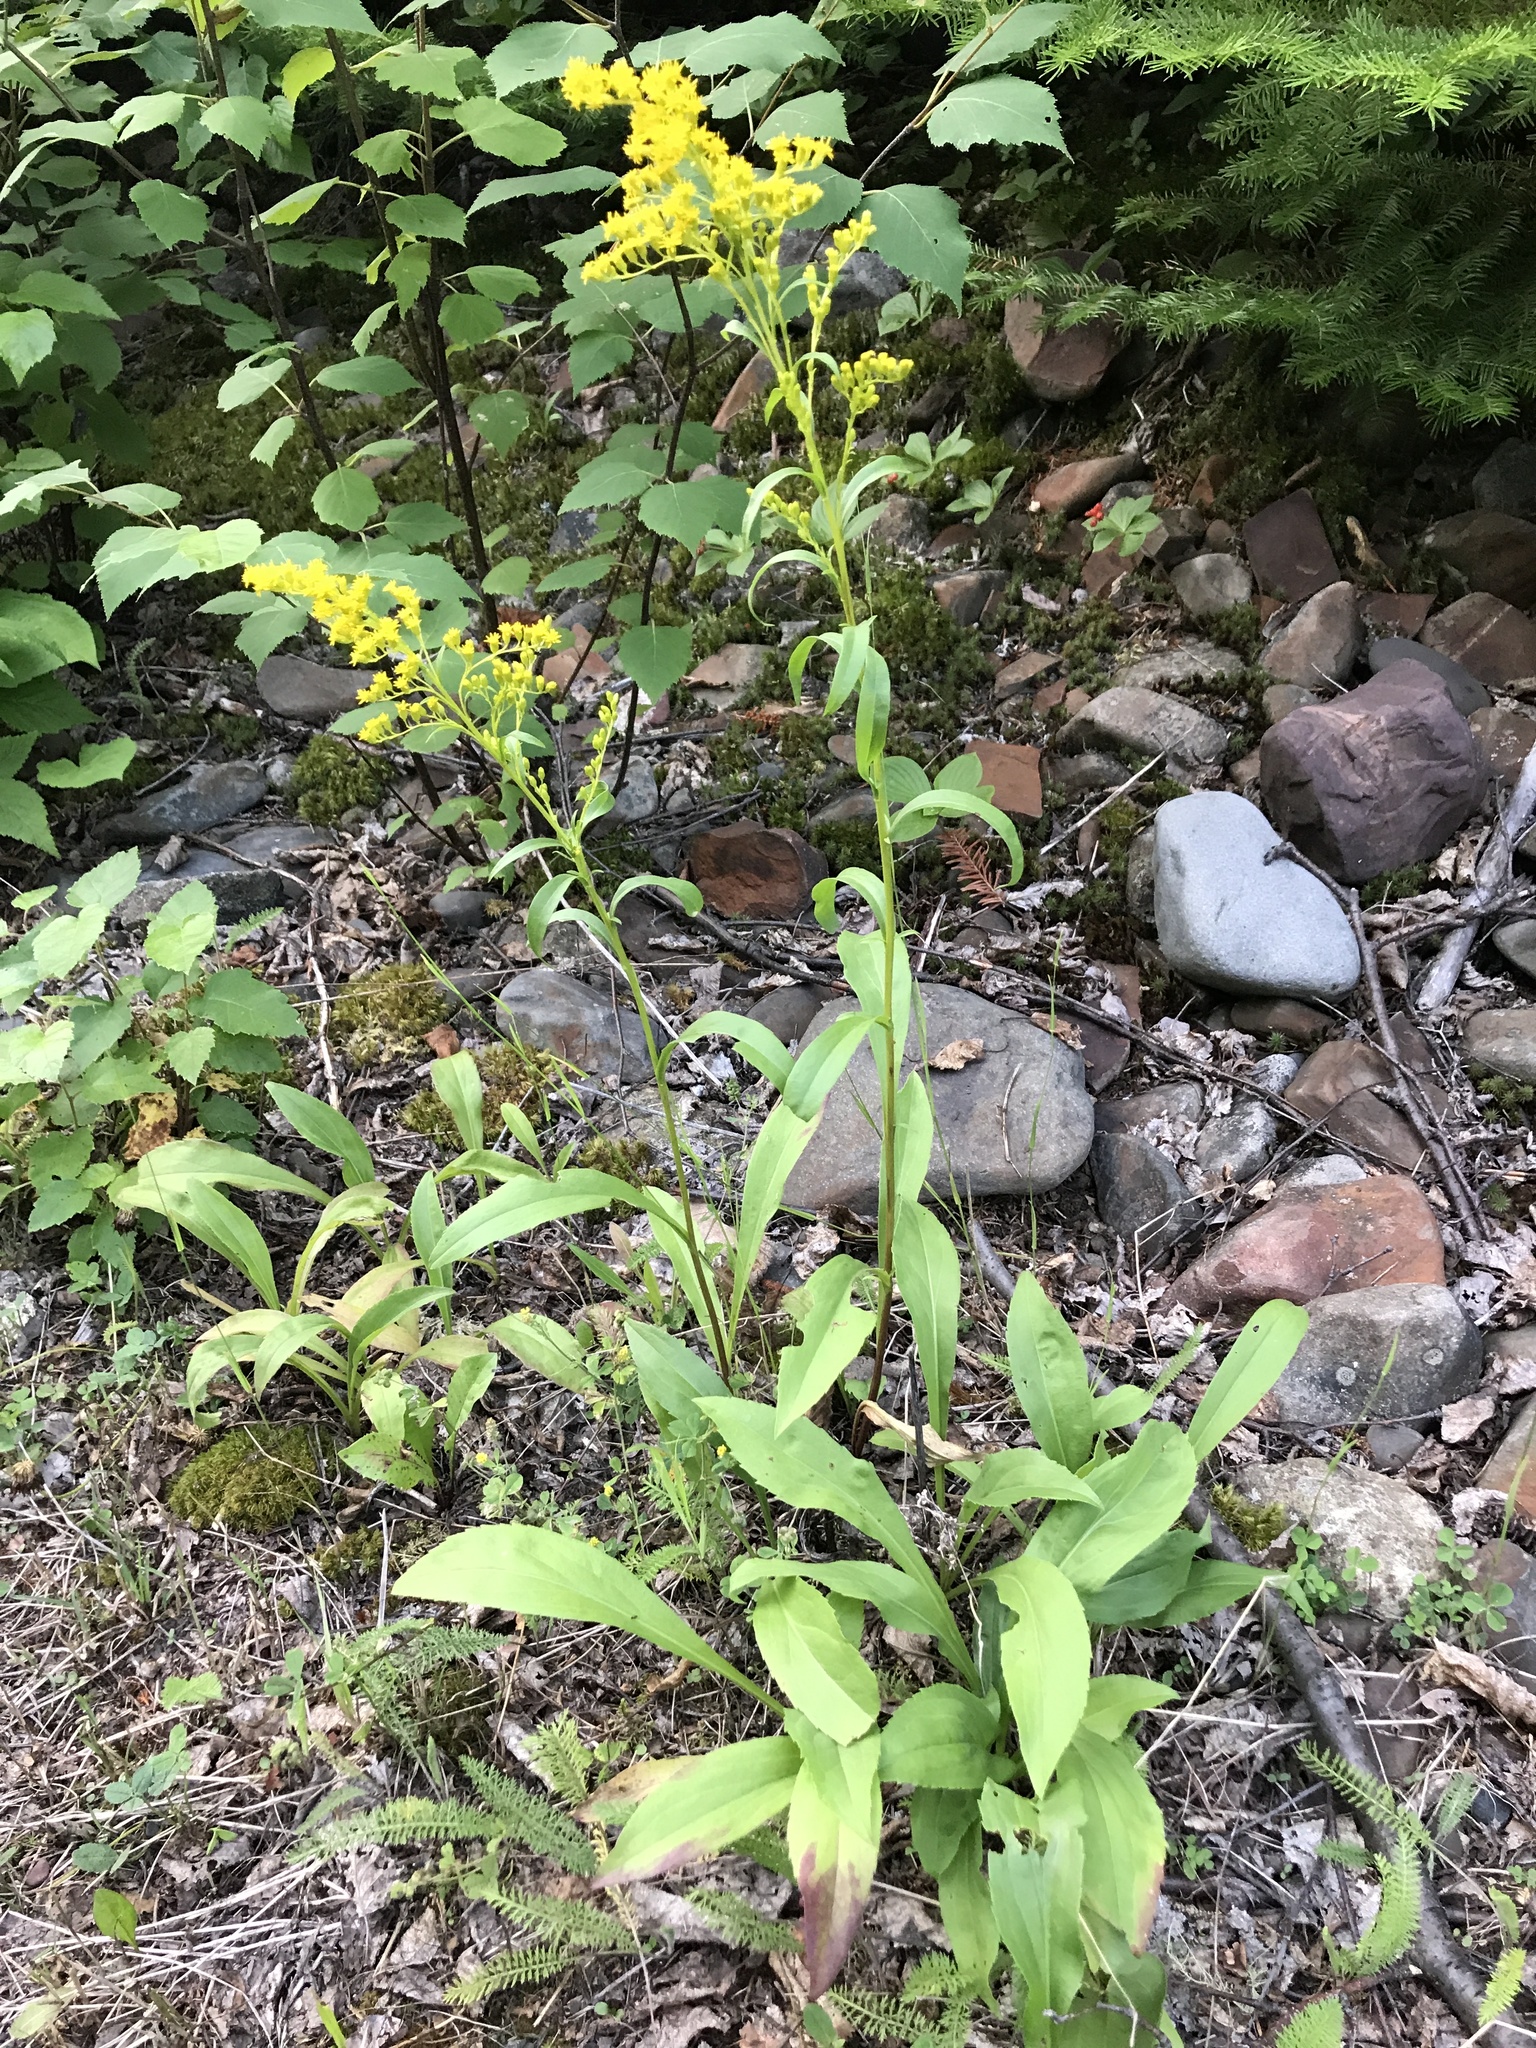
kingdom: Plantae
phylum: Tracheophyta
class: Magnoliopsida
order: Asterales
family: Asteraceae
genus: Solidago
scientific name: Solidago juncea
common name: Early goldenrod
